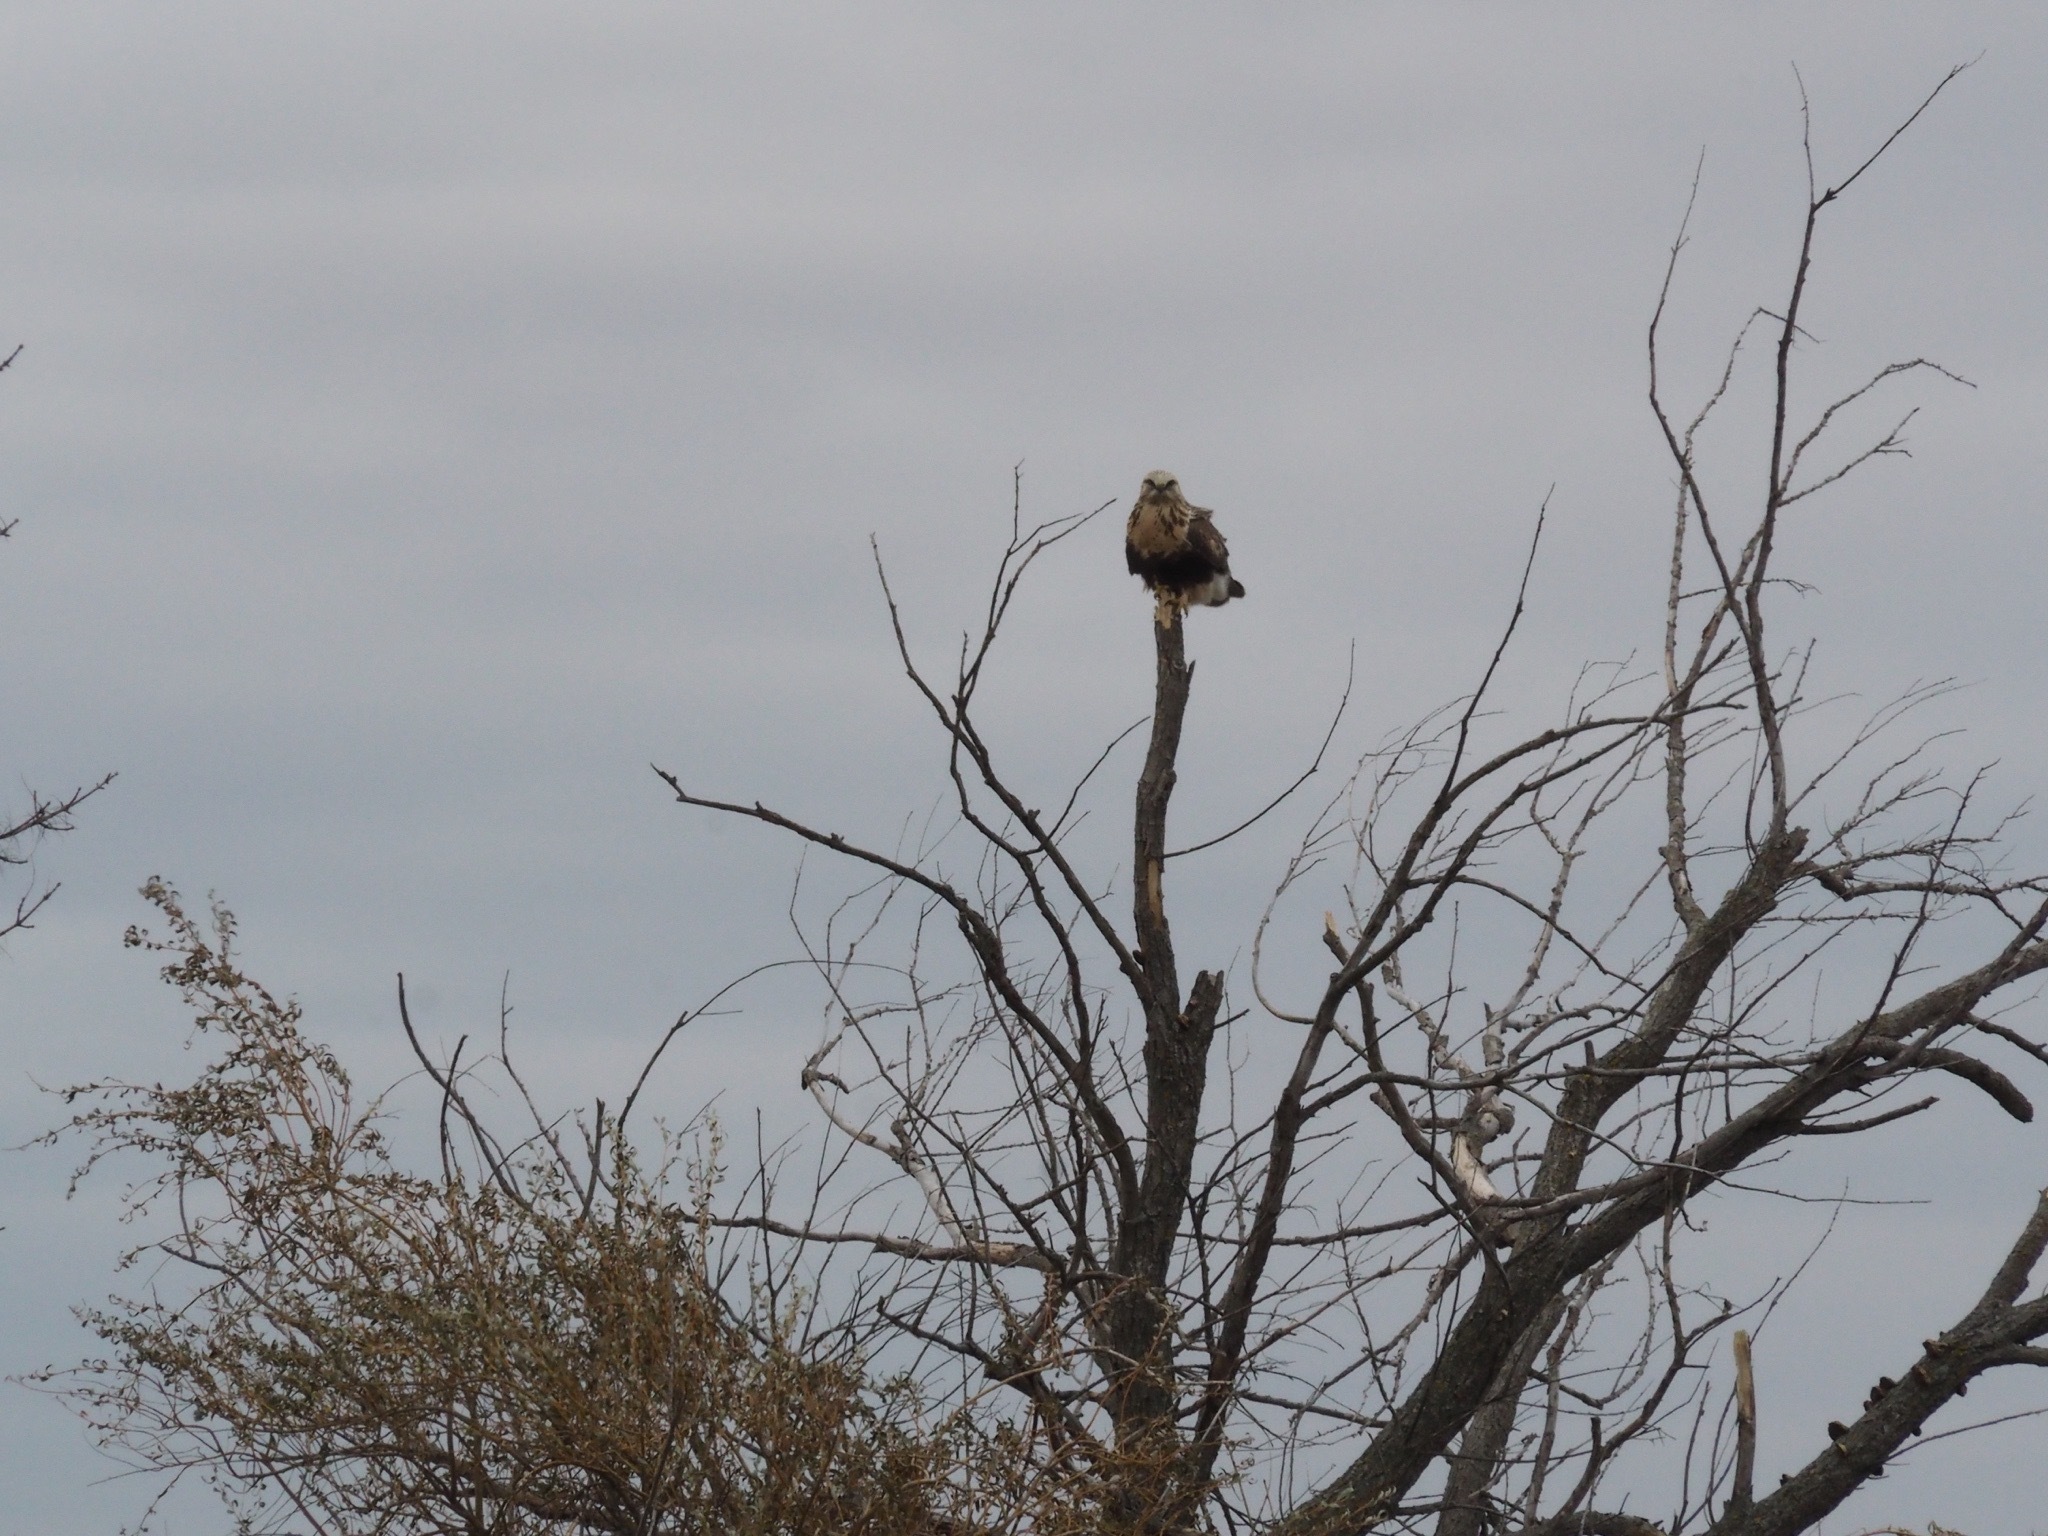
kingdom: Animalia
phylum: Chordata
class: Aves
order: Accipitriformes
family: Accipitridae
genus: Buteo
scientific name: Buteo lagopus
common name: Rough-legged buzzard
